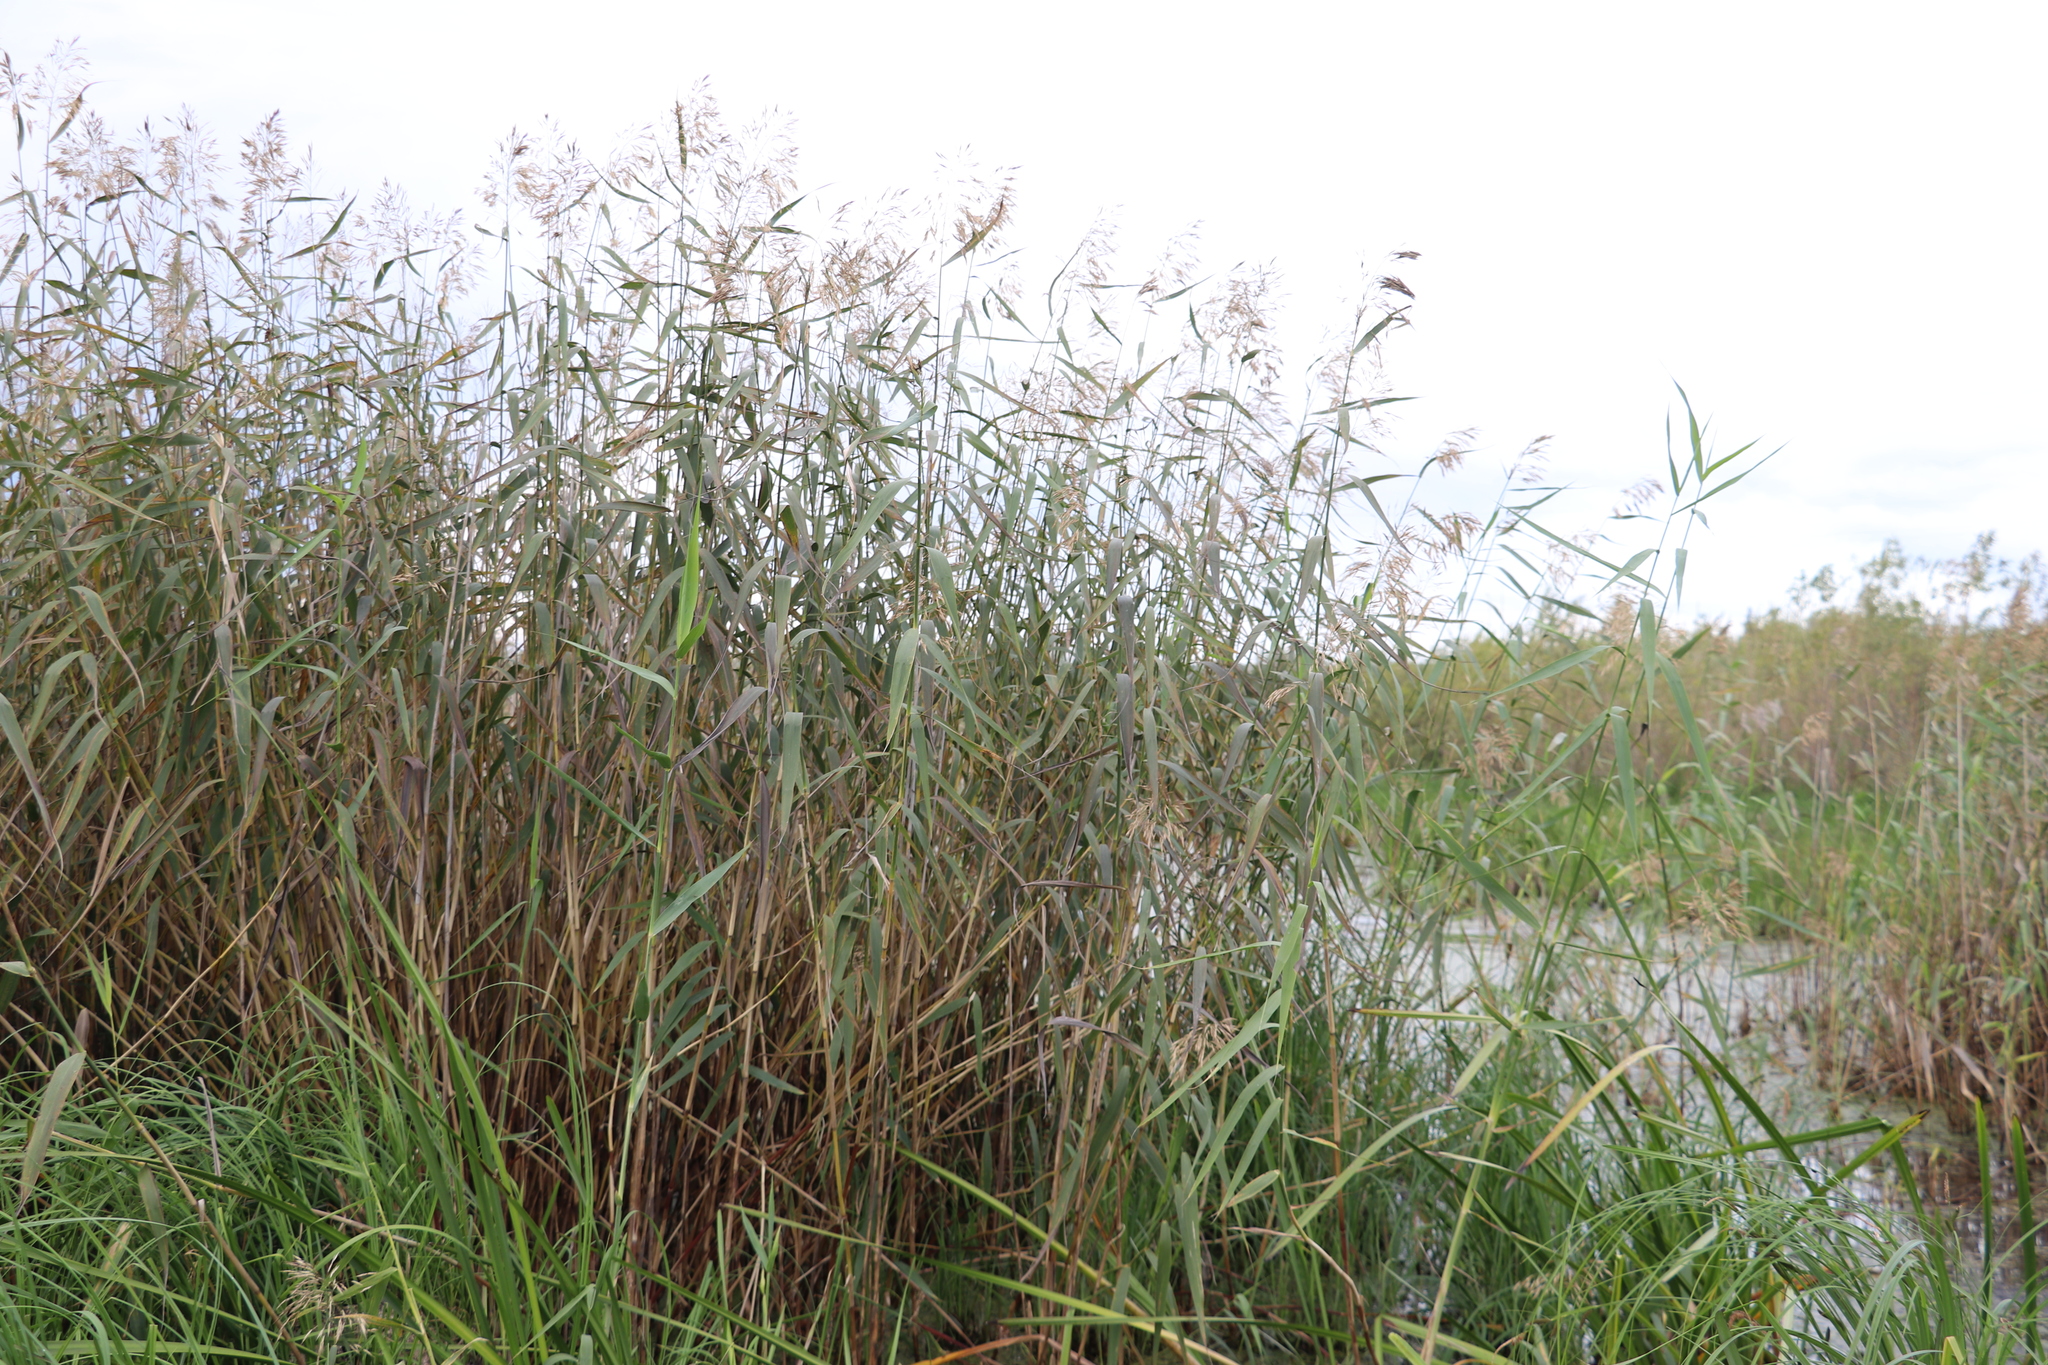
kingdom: Plantae
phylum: Tracheophyta
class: Liliopsida
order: Poales
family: Poaceae
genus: Phragmites
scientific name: Phragmites australis
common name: Common reed
